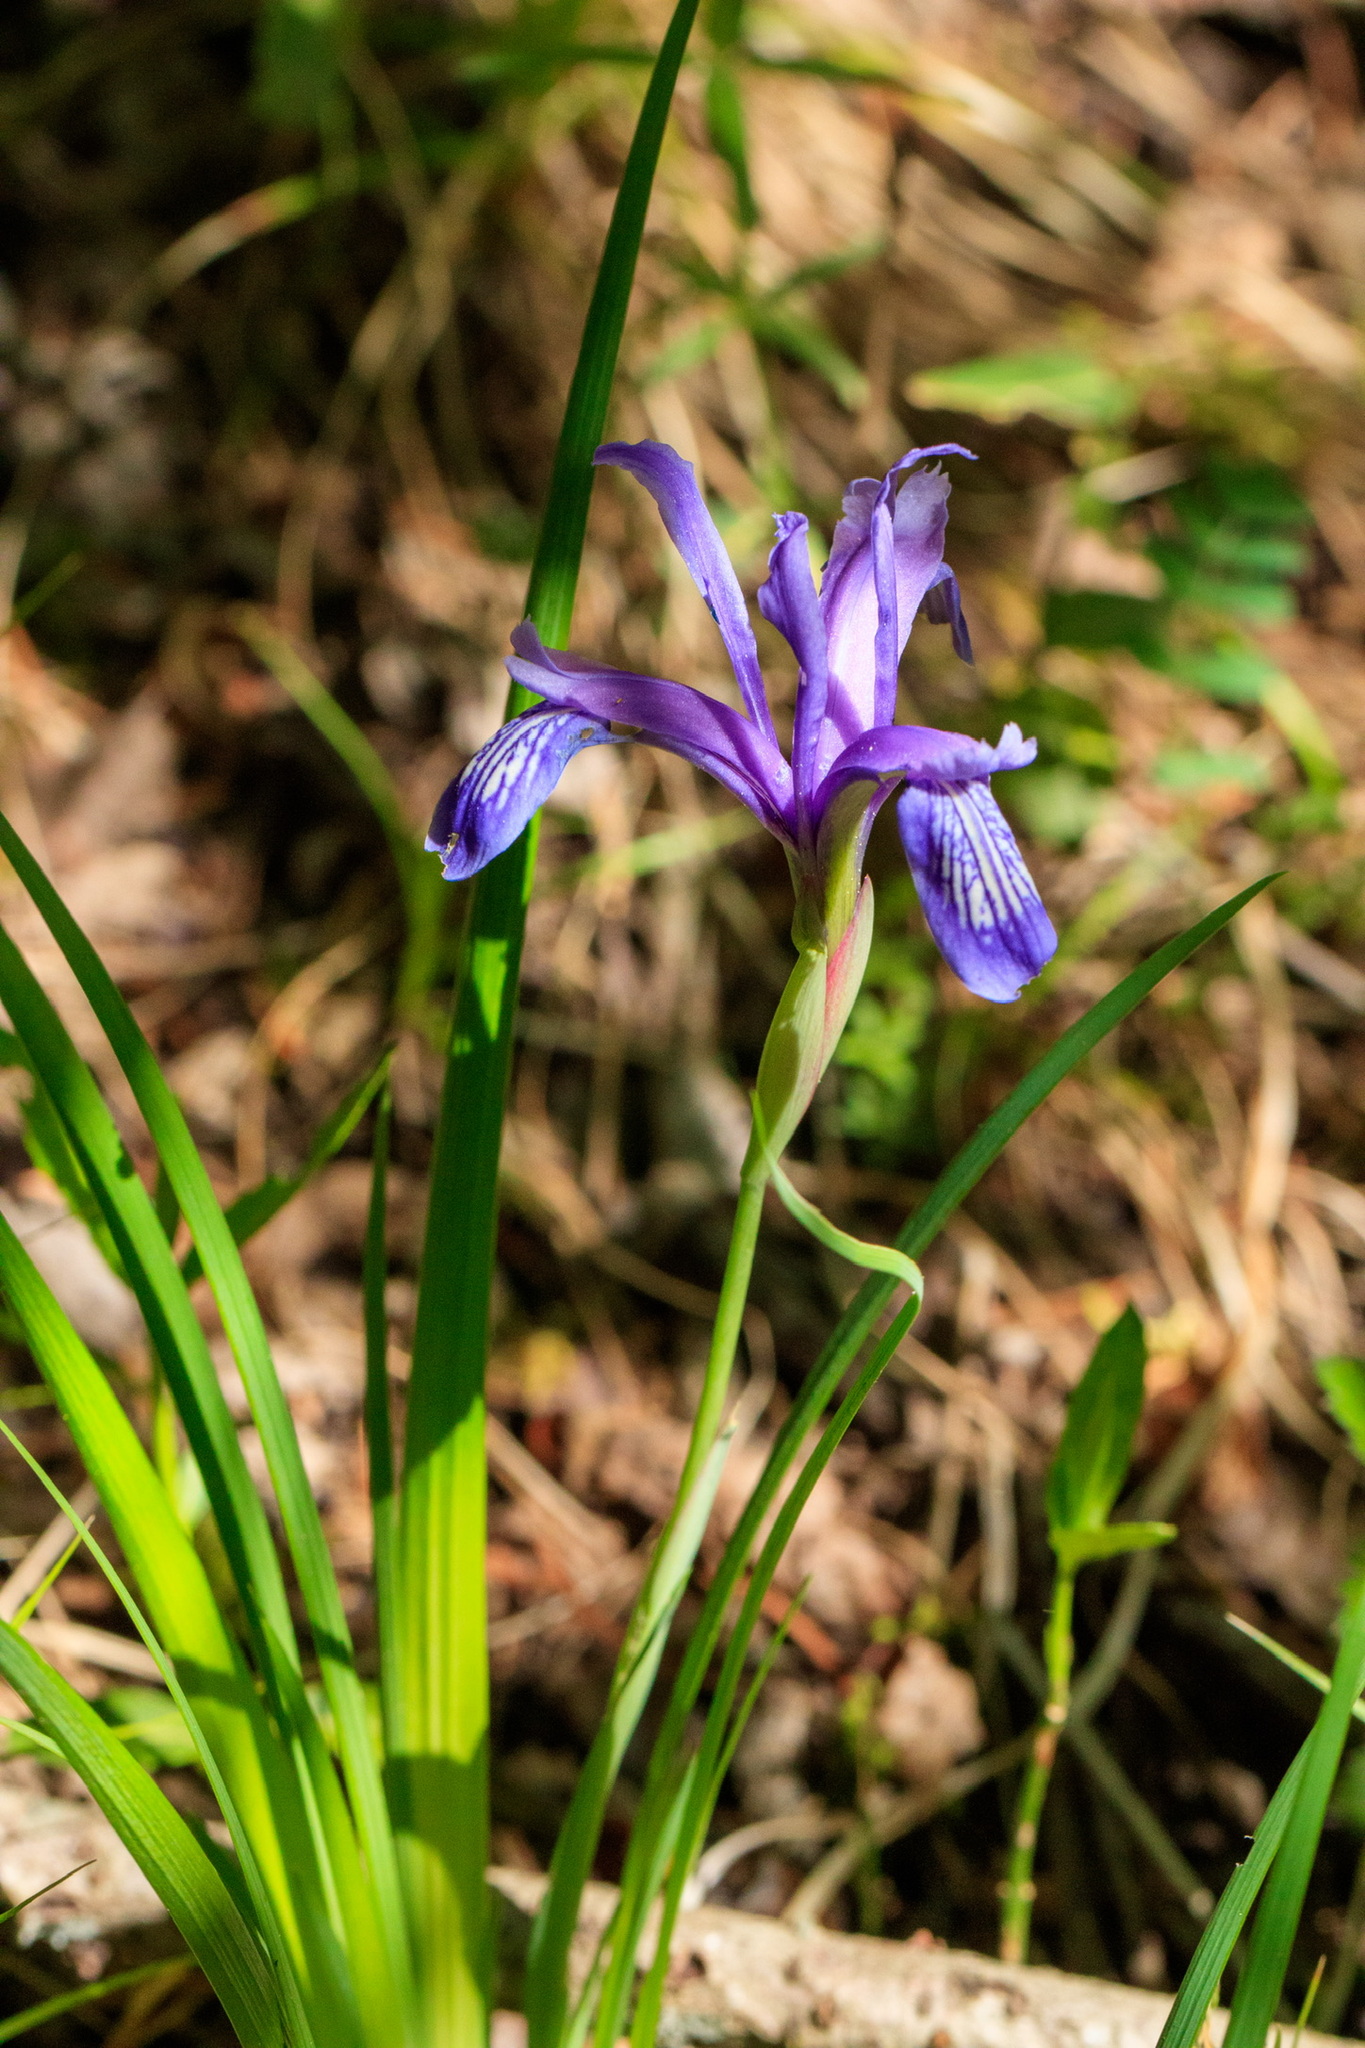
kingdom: Plantae
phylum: Tracheophyta
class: Liliopsida
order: Asparagales
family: Iridaceae
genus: Iris
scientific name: Iris ruthenica
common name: Purple-bract iris
